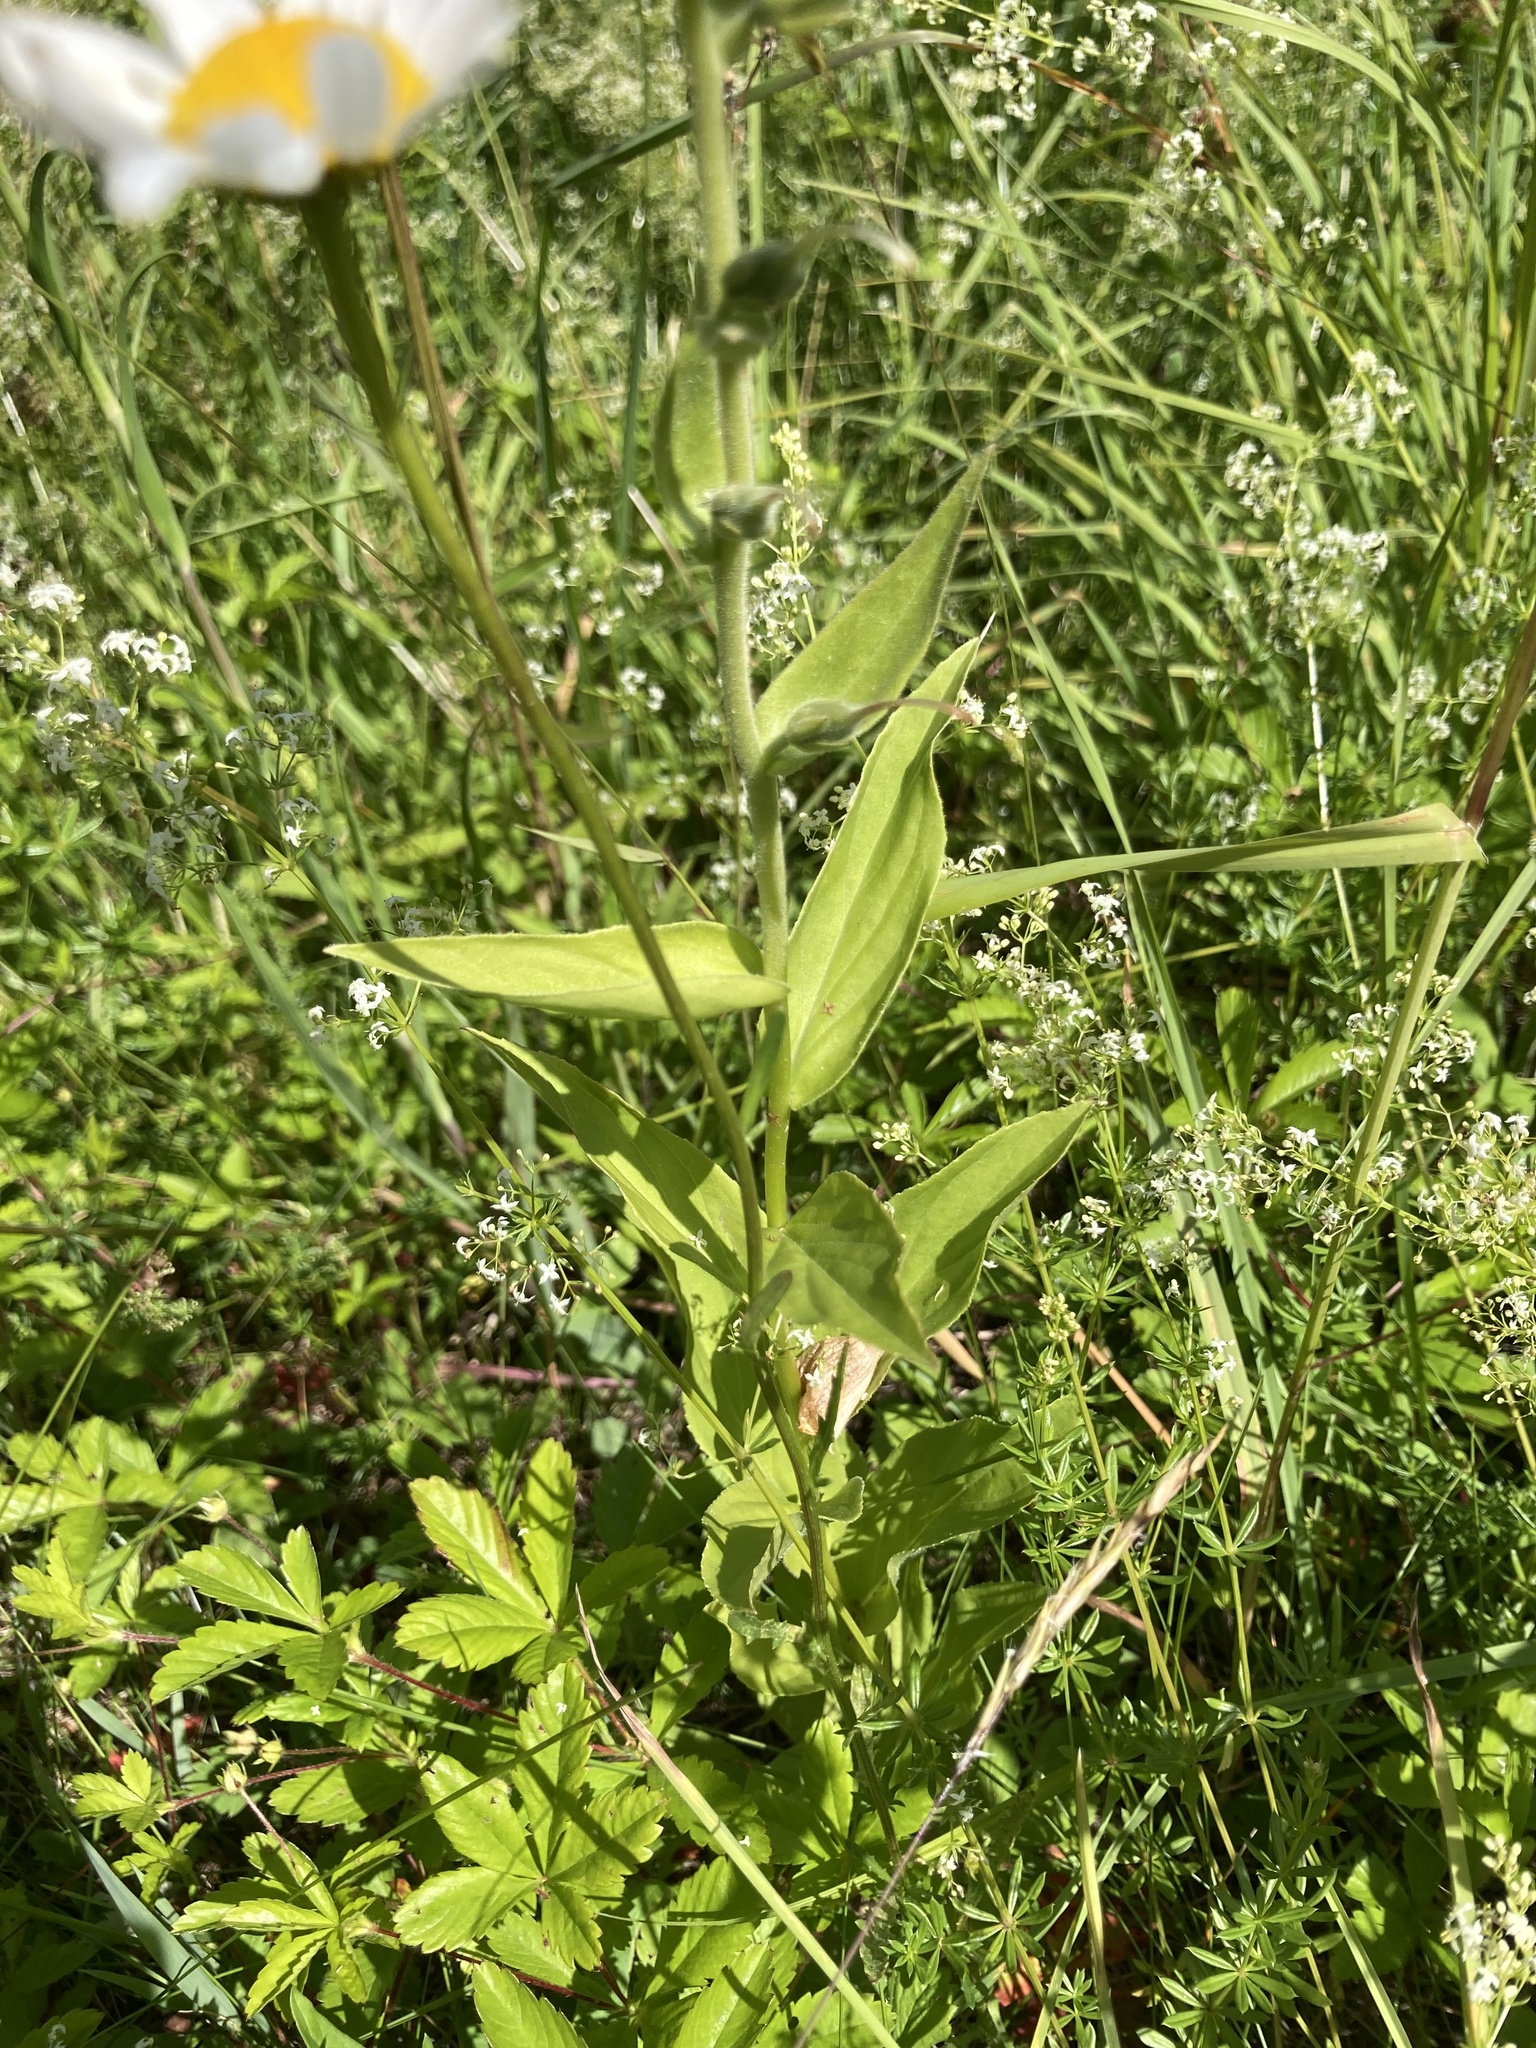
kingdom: Plantae
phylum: Tracheophyta
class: Magnoliopsida
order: Lamiales
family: Plantaginaceae
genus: Digitalis
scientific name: Digitalis grandiflora
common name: Yellow foxglove
